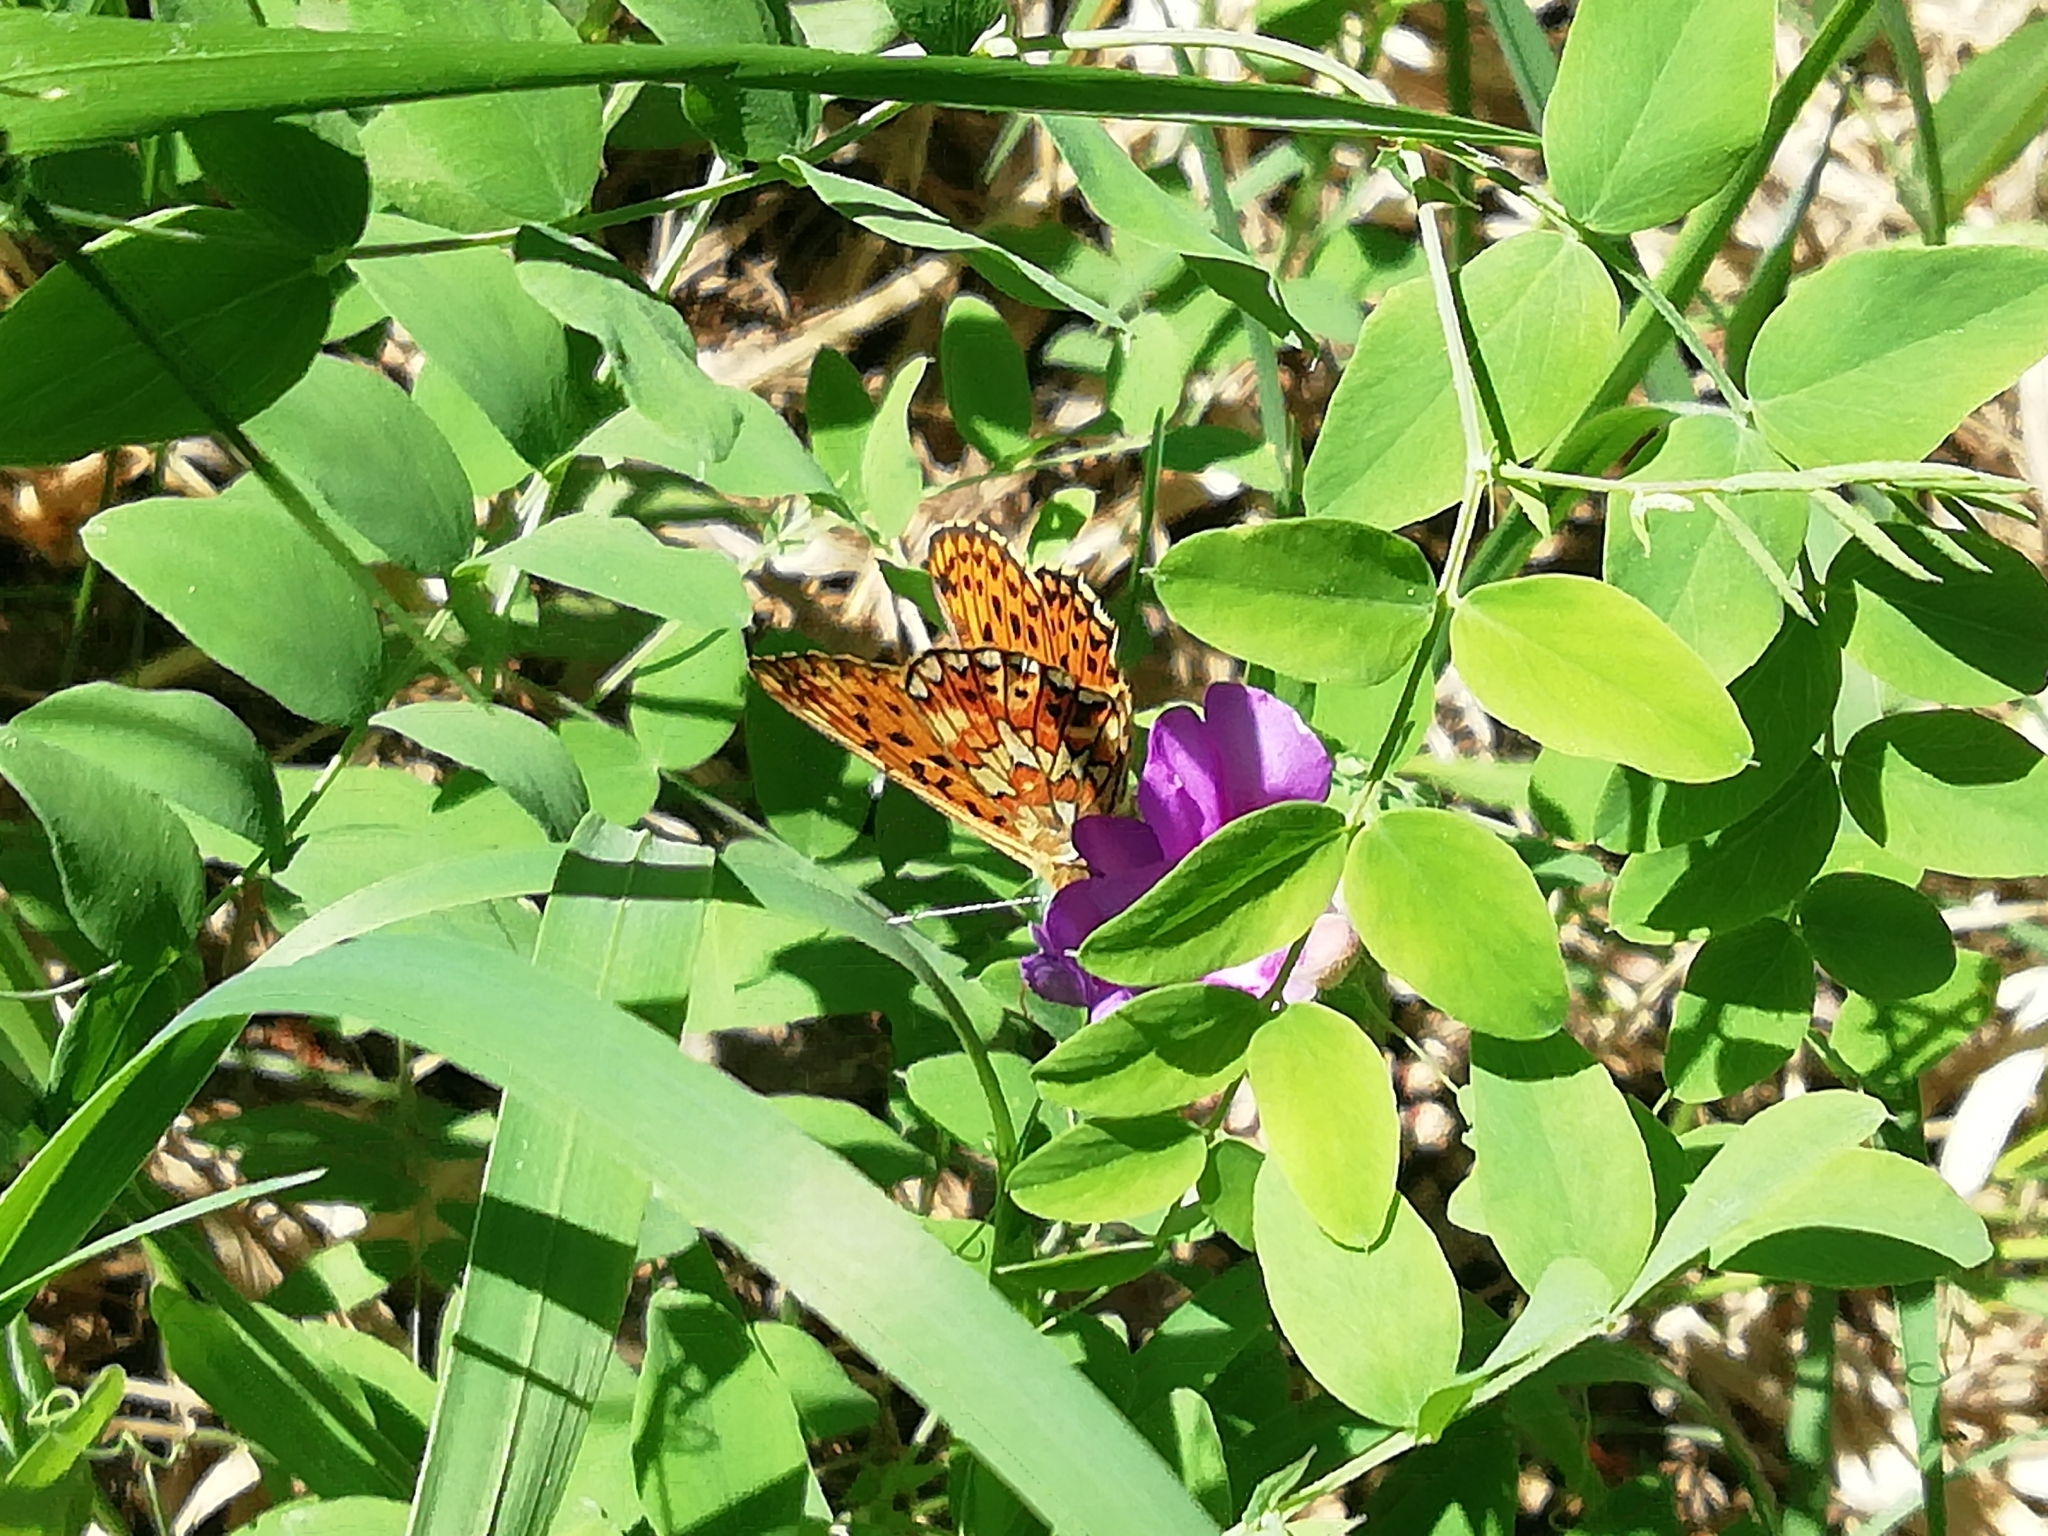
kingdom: Animalia
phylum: Arthropoda
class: Insecta
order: Lepidoptera
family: Nymphalidae
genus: Clossiana
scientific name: Clossiana euphrosyne
